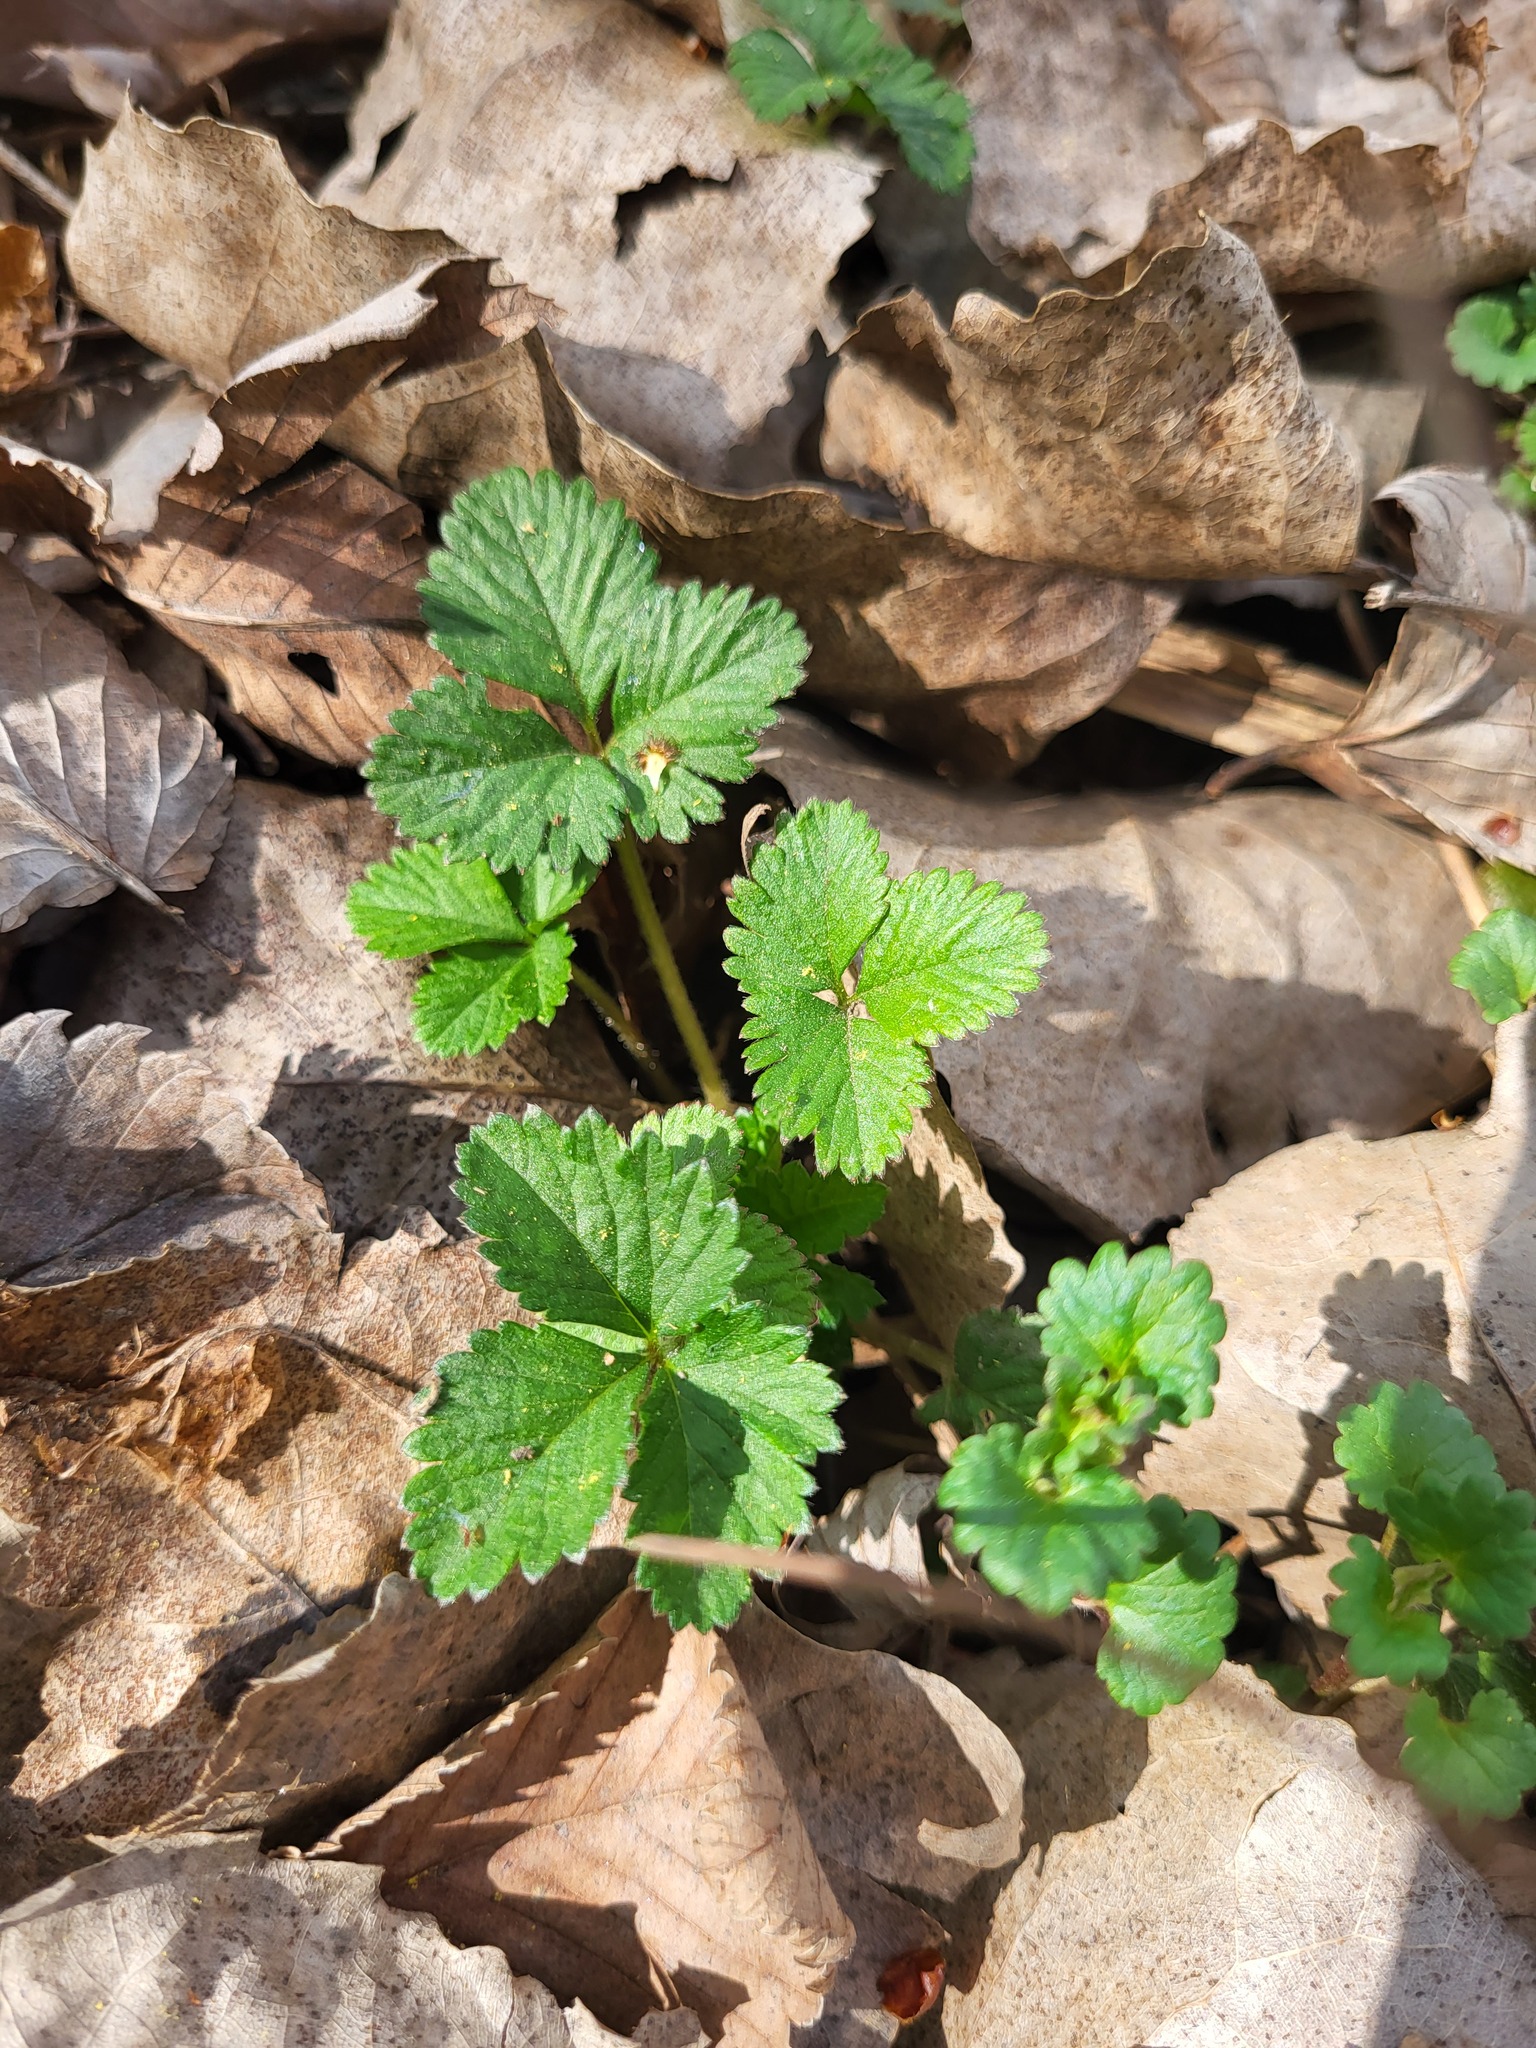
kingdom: Plantae
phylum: Tracheophyta
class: Magnoliopsida
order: Rosales
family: Rosaceae
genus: Potentilla
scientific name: Potentilla indica
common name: Yellow-flowered strawberry
